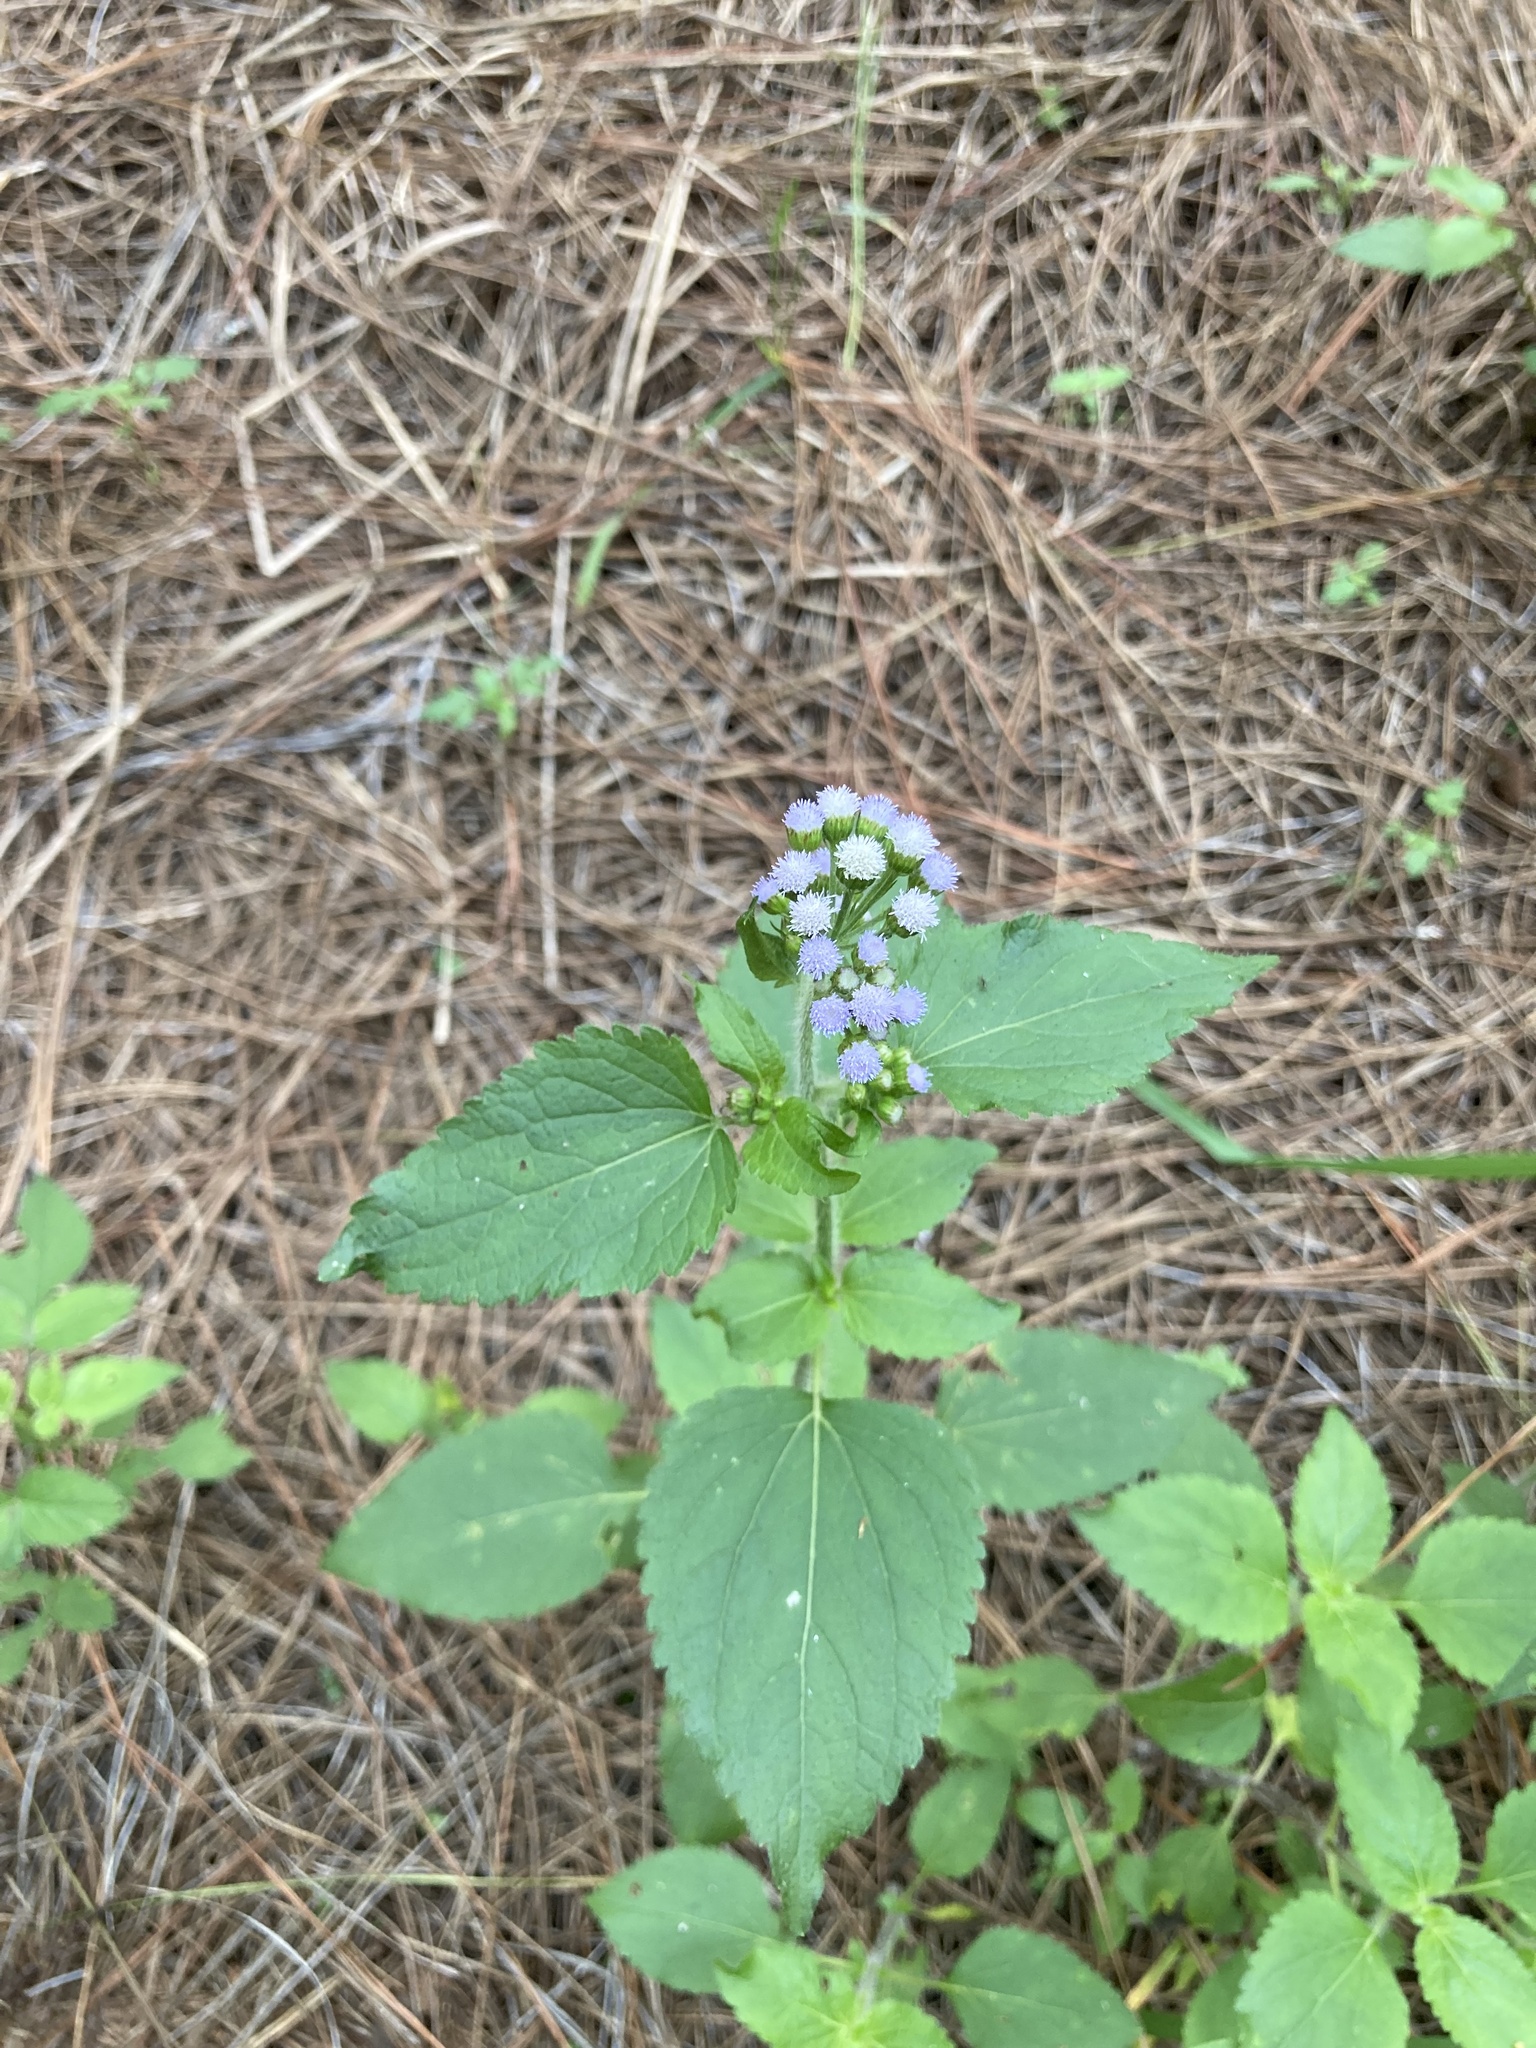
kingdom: Plantae
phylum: Tracheophyta
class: Magnoliopsida
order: Asterales
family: Asteraceae
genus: Ageratum
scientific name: Ageratum conyzoides
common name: Tropical whiteweed
